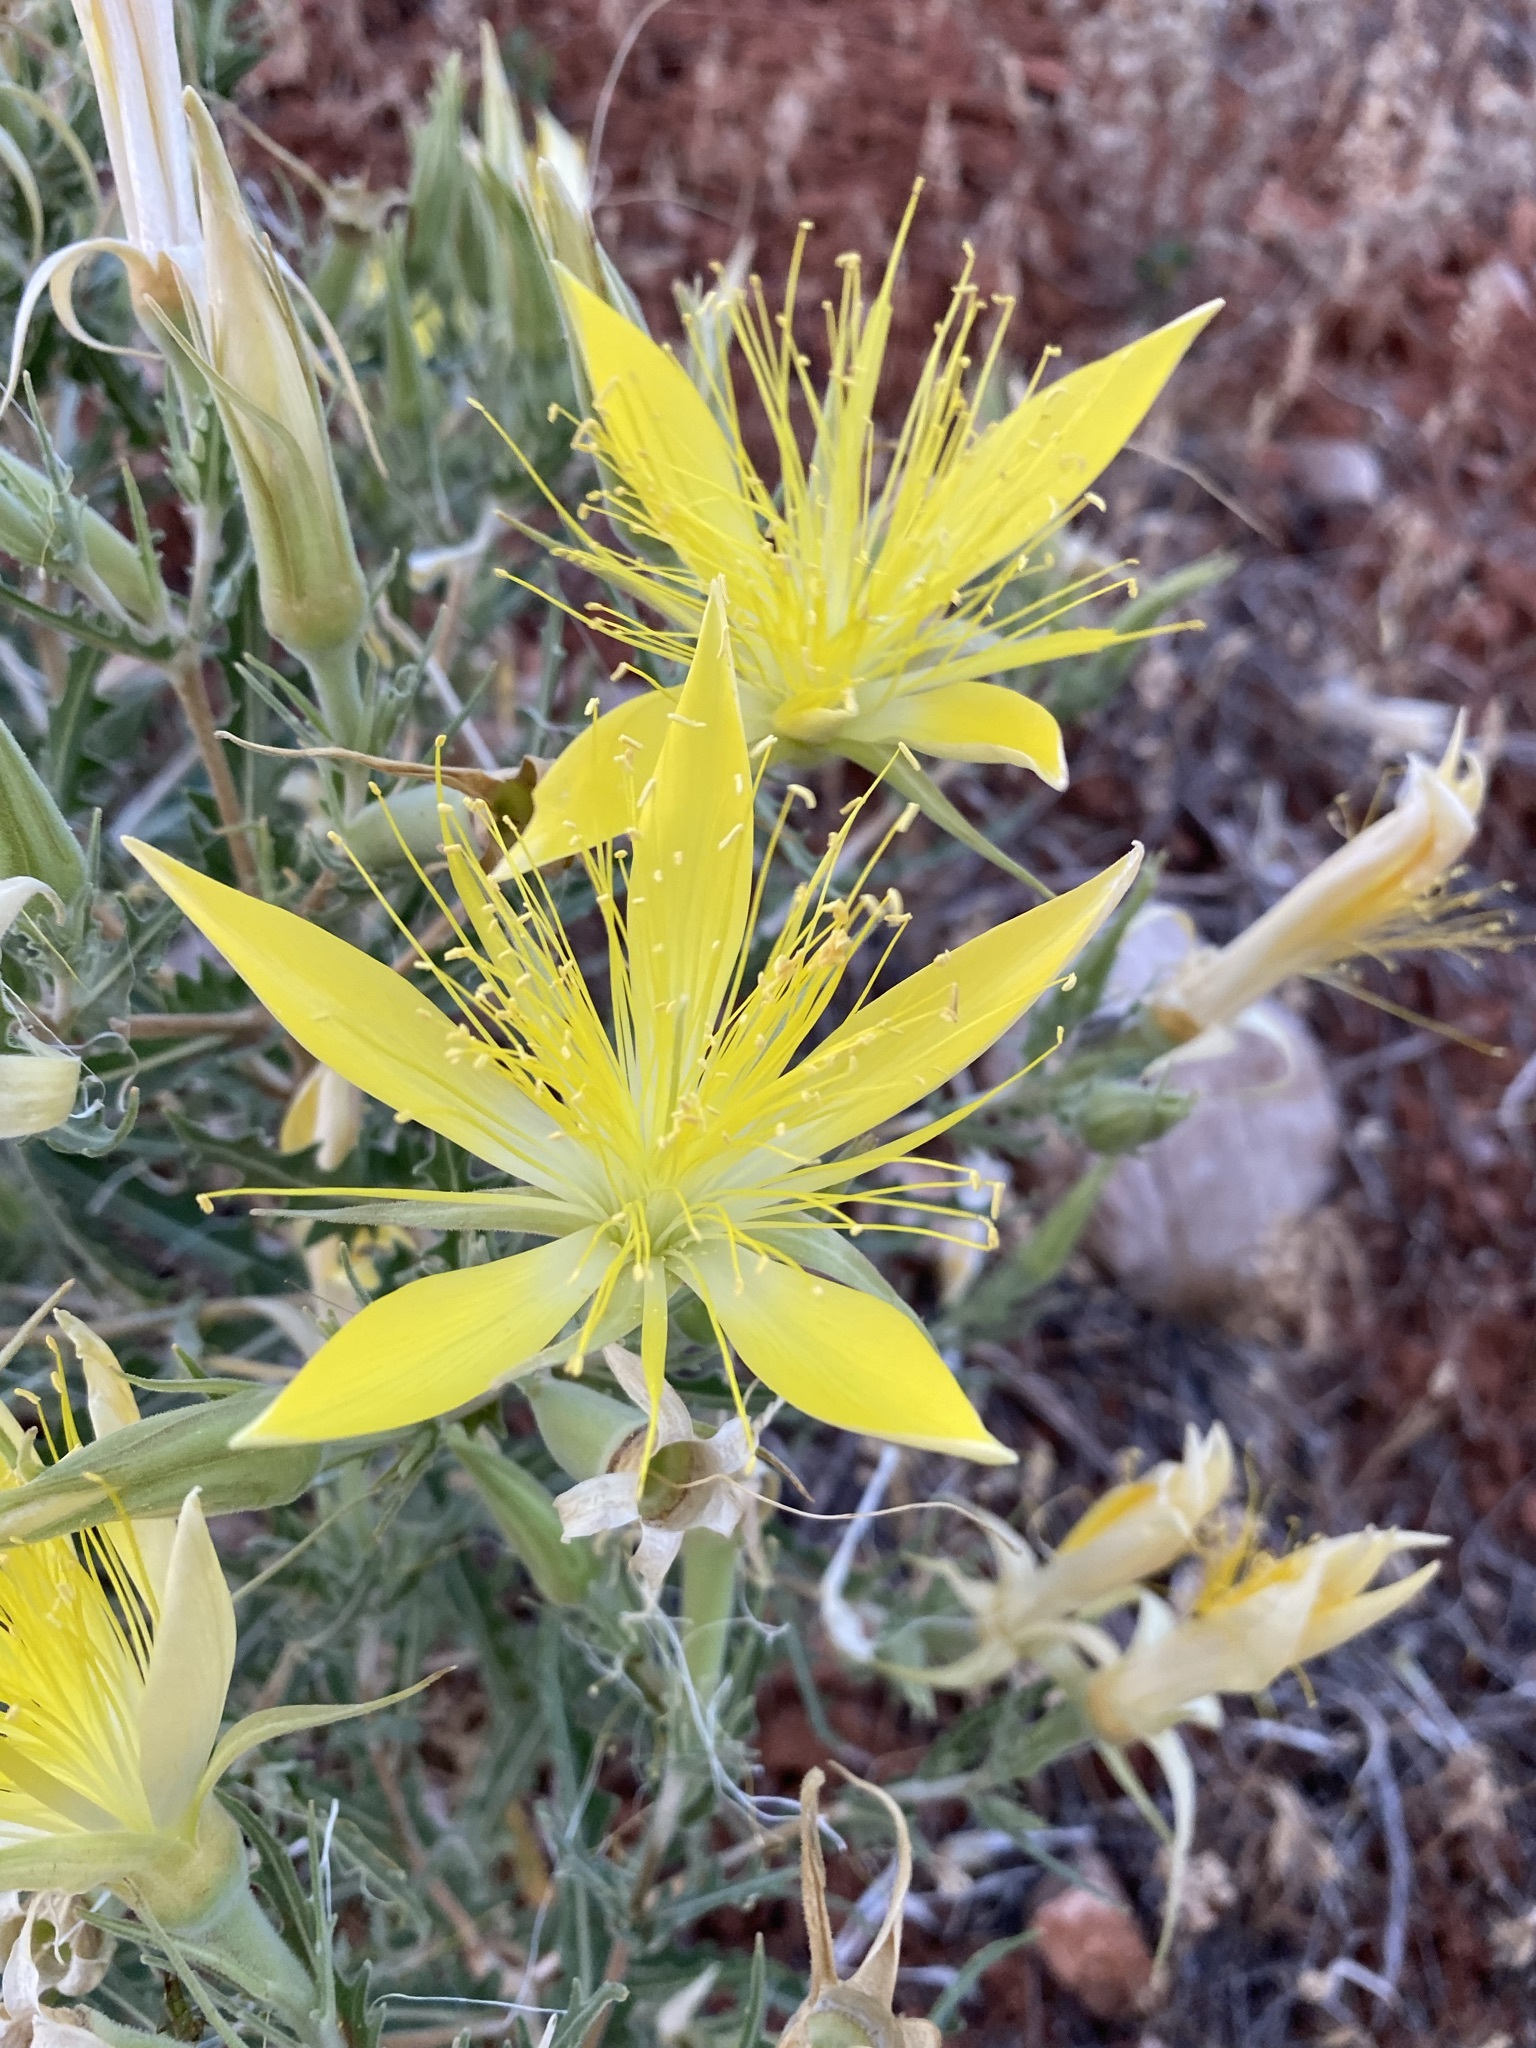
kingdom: Plantae
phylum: Tracheophyta
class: Magnoliopsida
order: Cornales
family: Loasaceae
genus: Mentzelia
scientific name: Mentzelia laevicaulis
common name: Smooth-stem blazingstar
